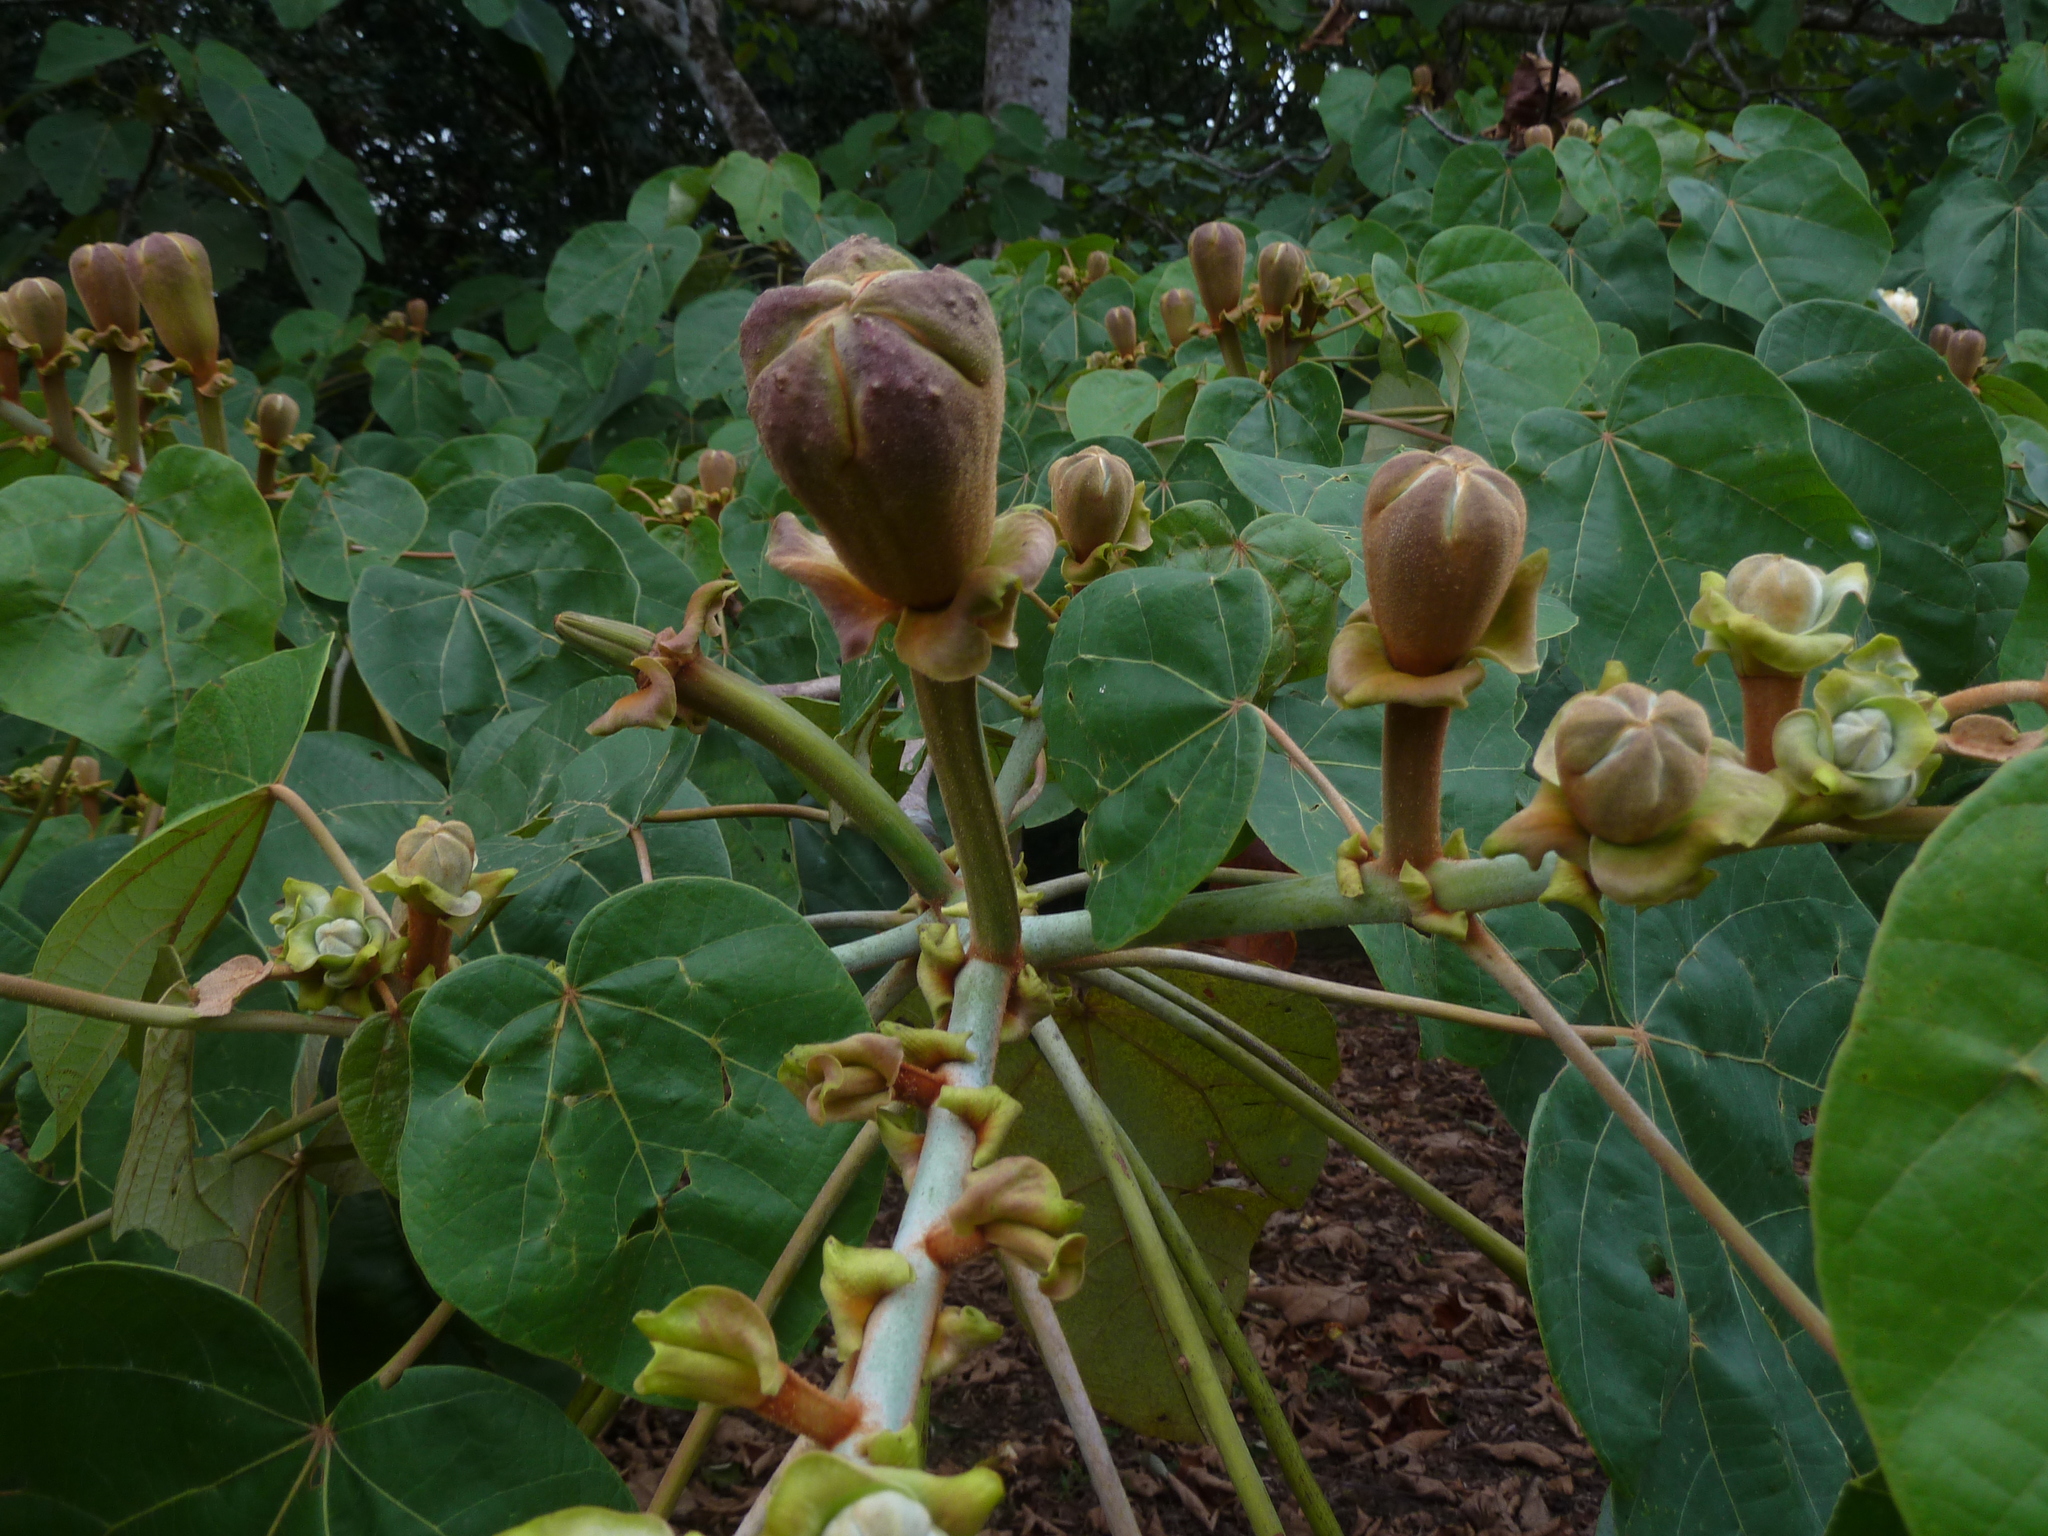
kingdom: Plantae
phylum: Tracheophyta
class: Magnoliopsida
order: Malvales
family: Malvaceae
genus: Ochroma
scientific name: Ochroma pyramidale
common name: Balsa
